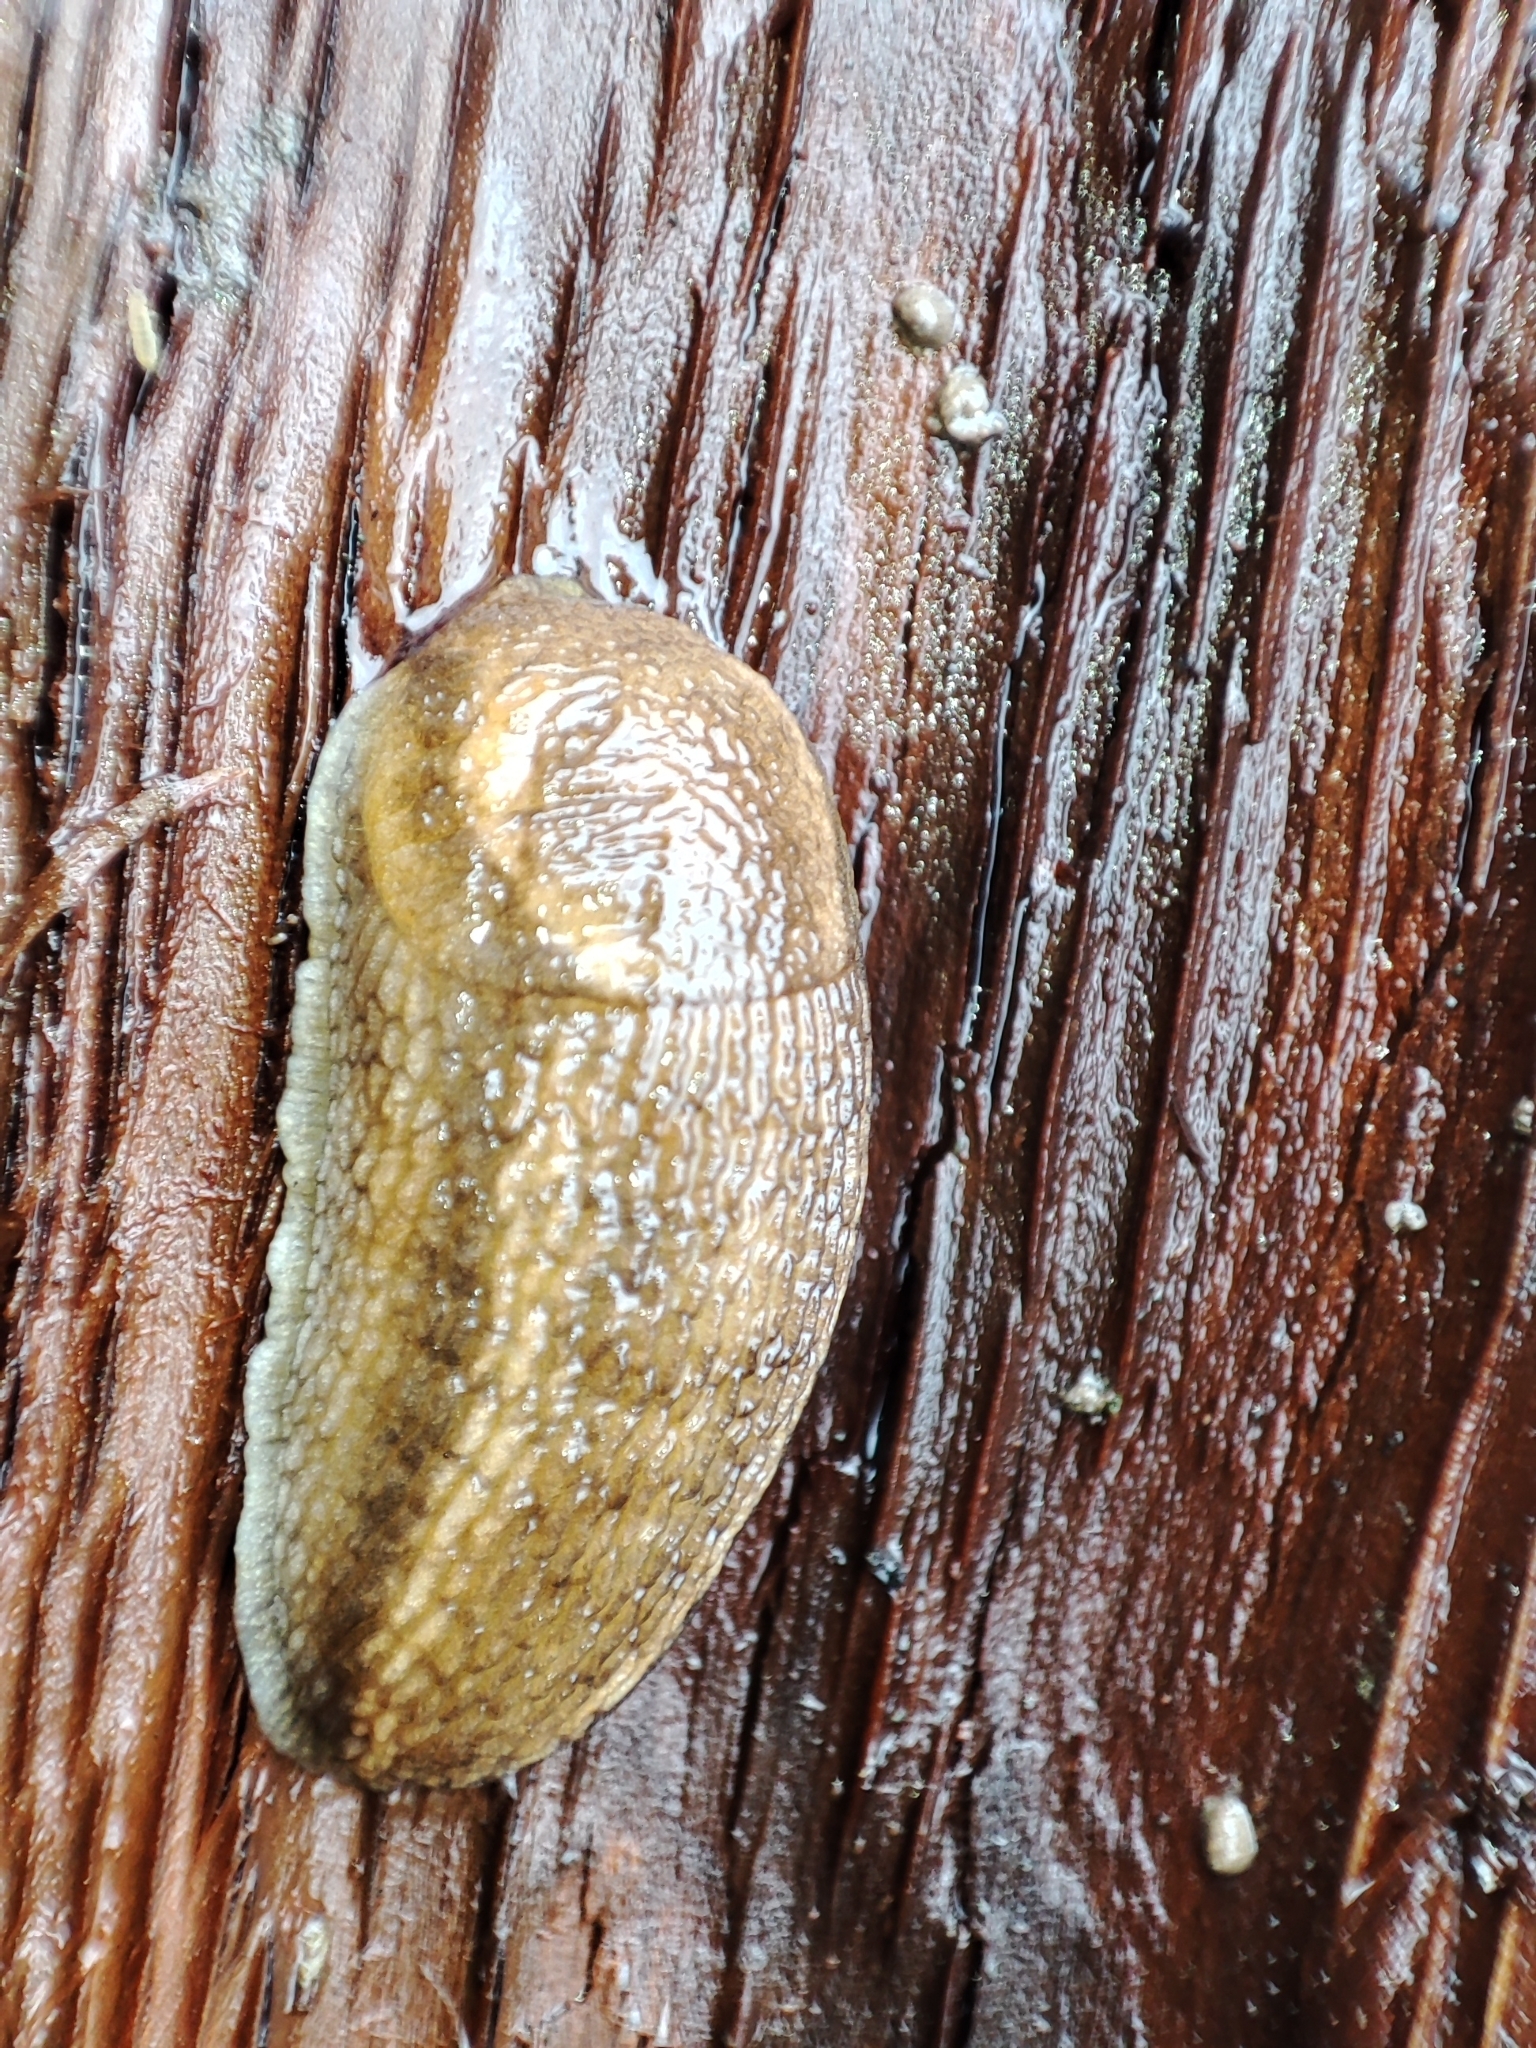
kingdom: Animalia
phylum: Mollusca
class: Gastropoda
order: Stylommatophora
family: Arionidae
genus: Arion
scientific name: Arion fuscus
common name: Northern dusky slug
